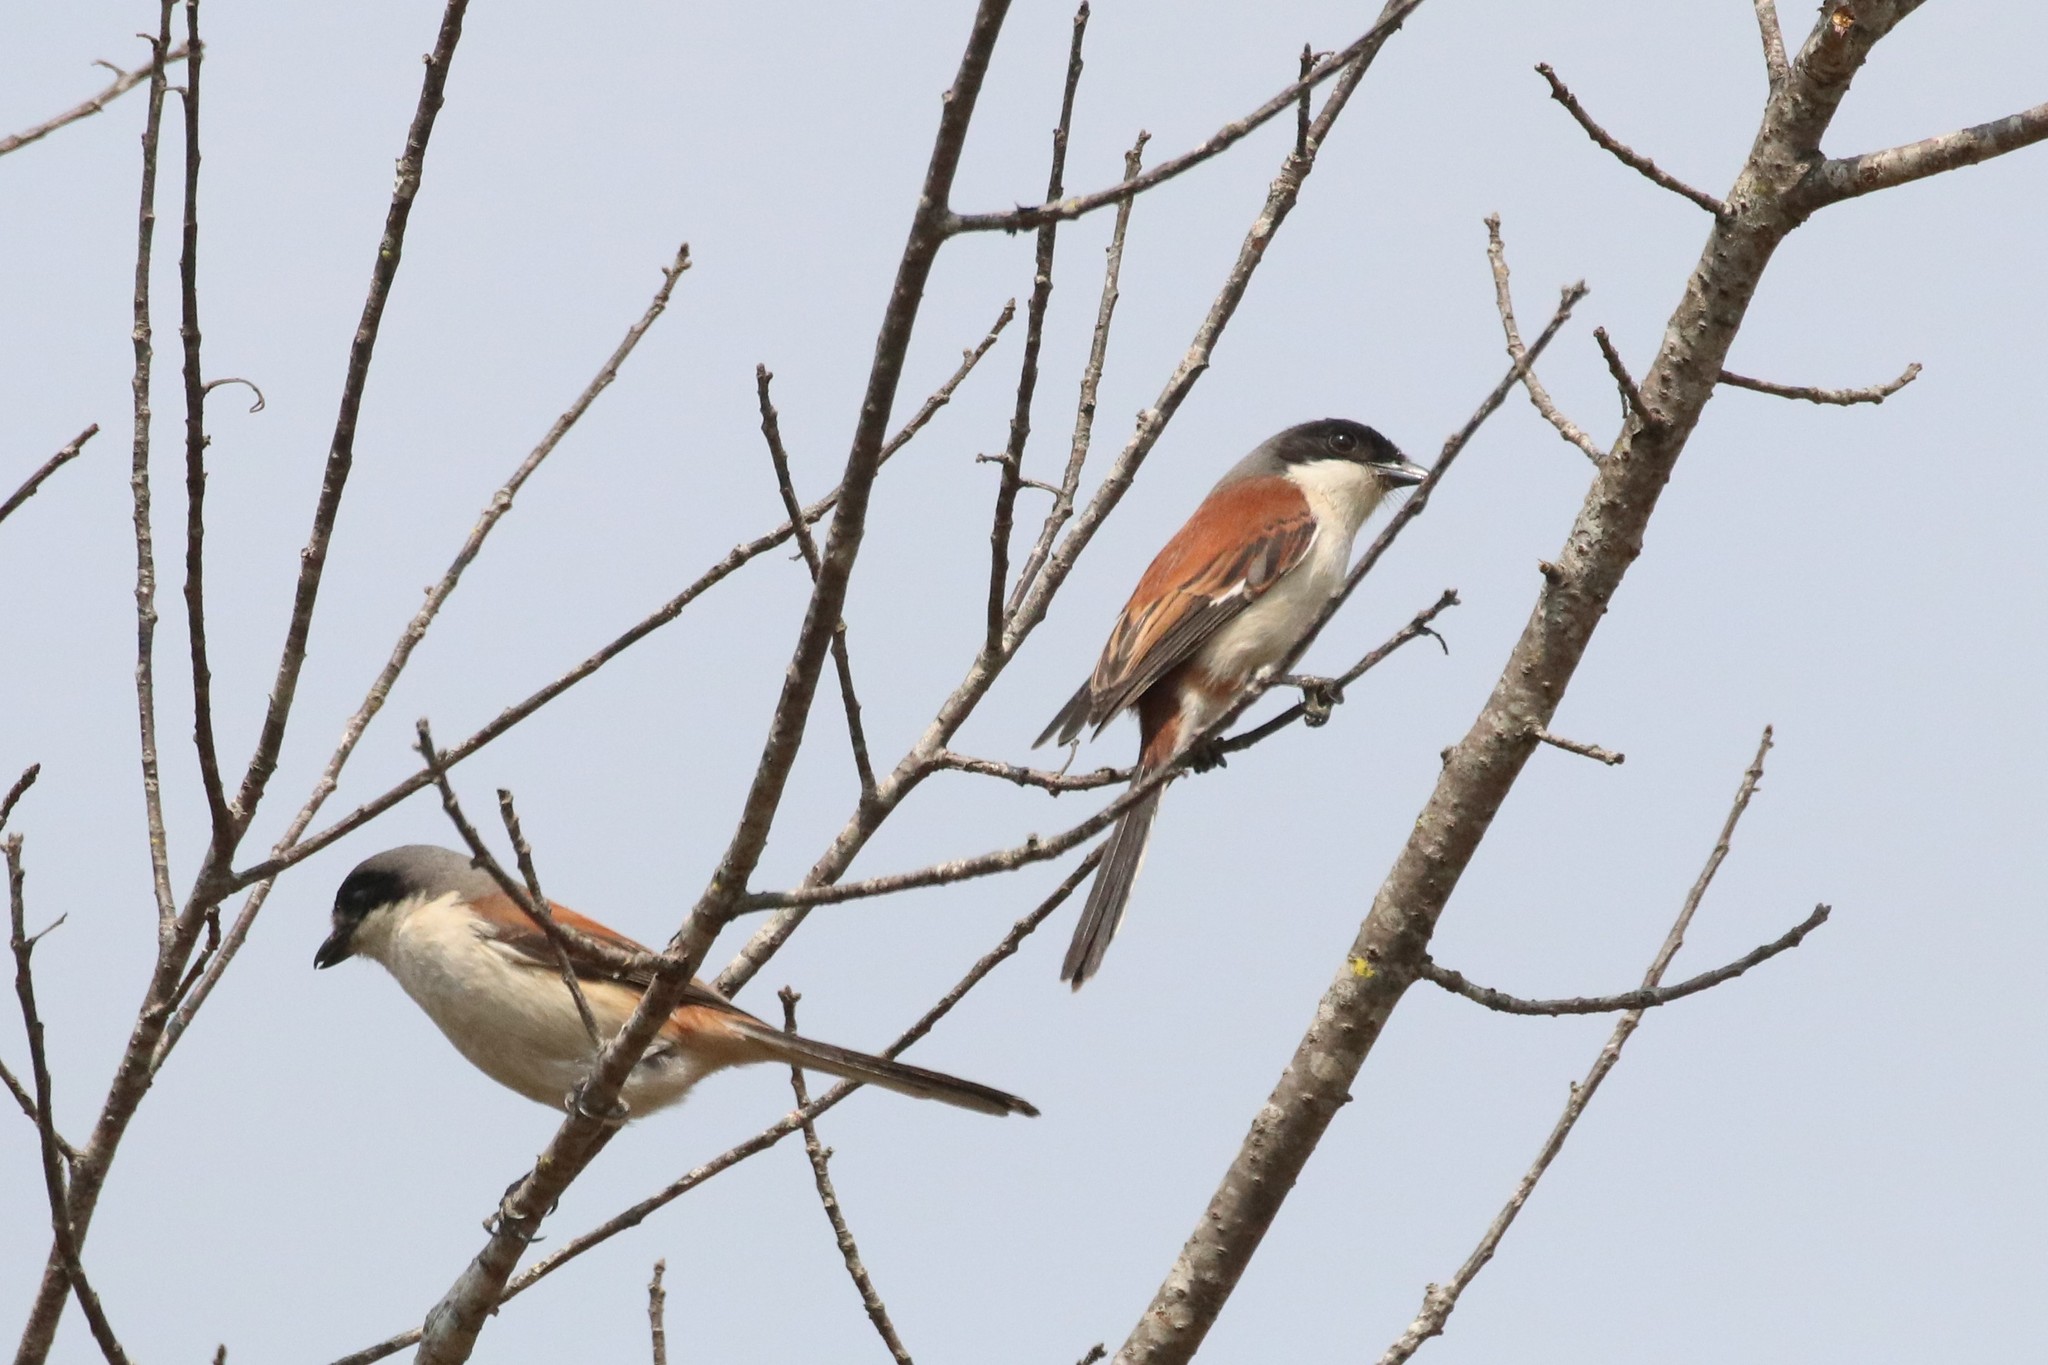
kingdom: Animalia
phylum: Chordata
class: Aves
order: Passeriformes
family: Laniidae
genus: Lanius
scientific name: Lanius schach
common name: Long-tailed shrike
